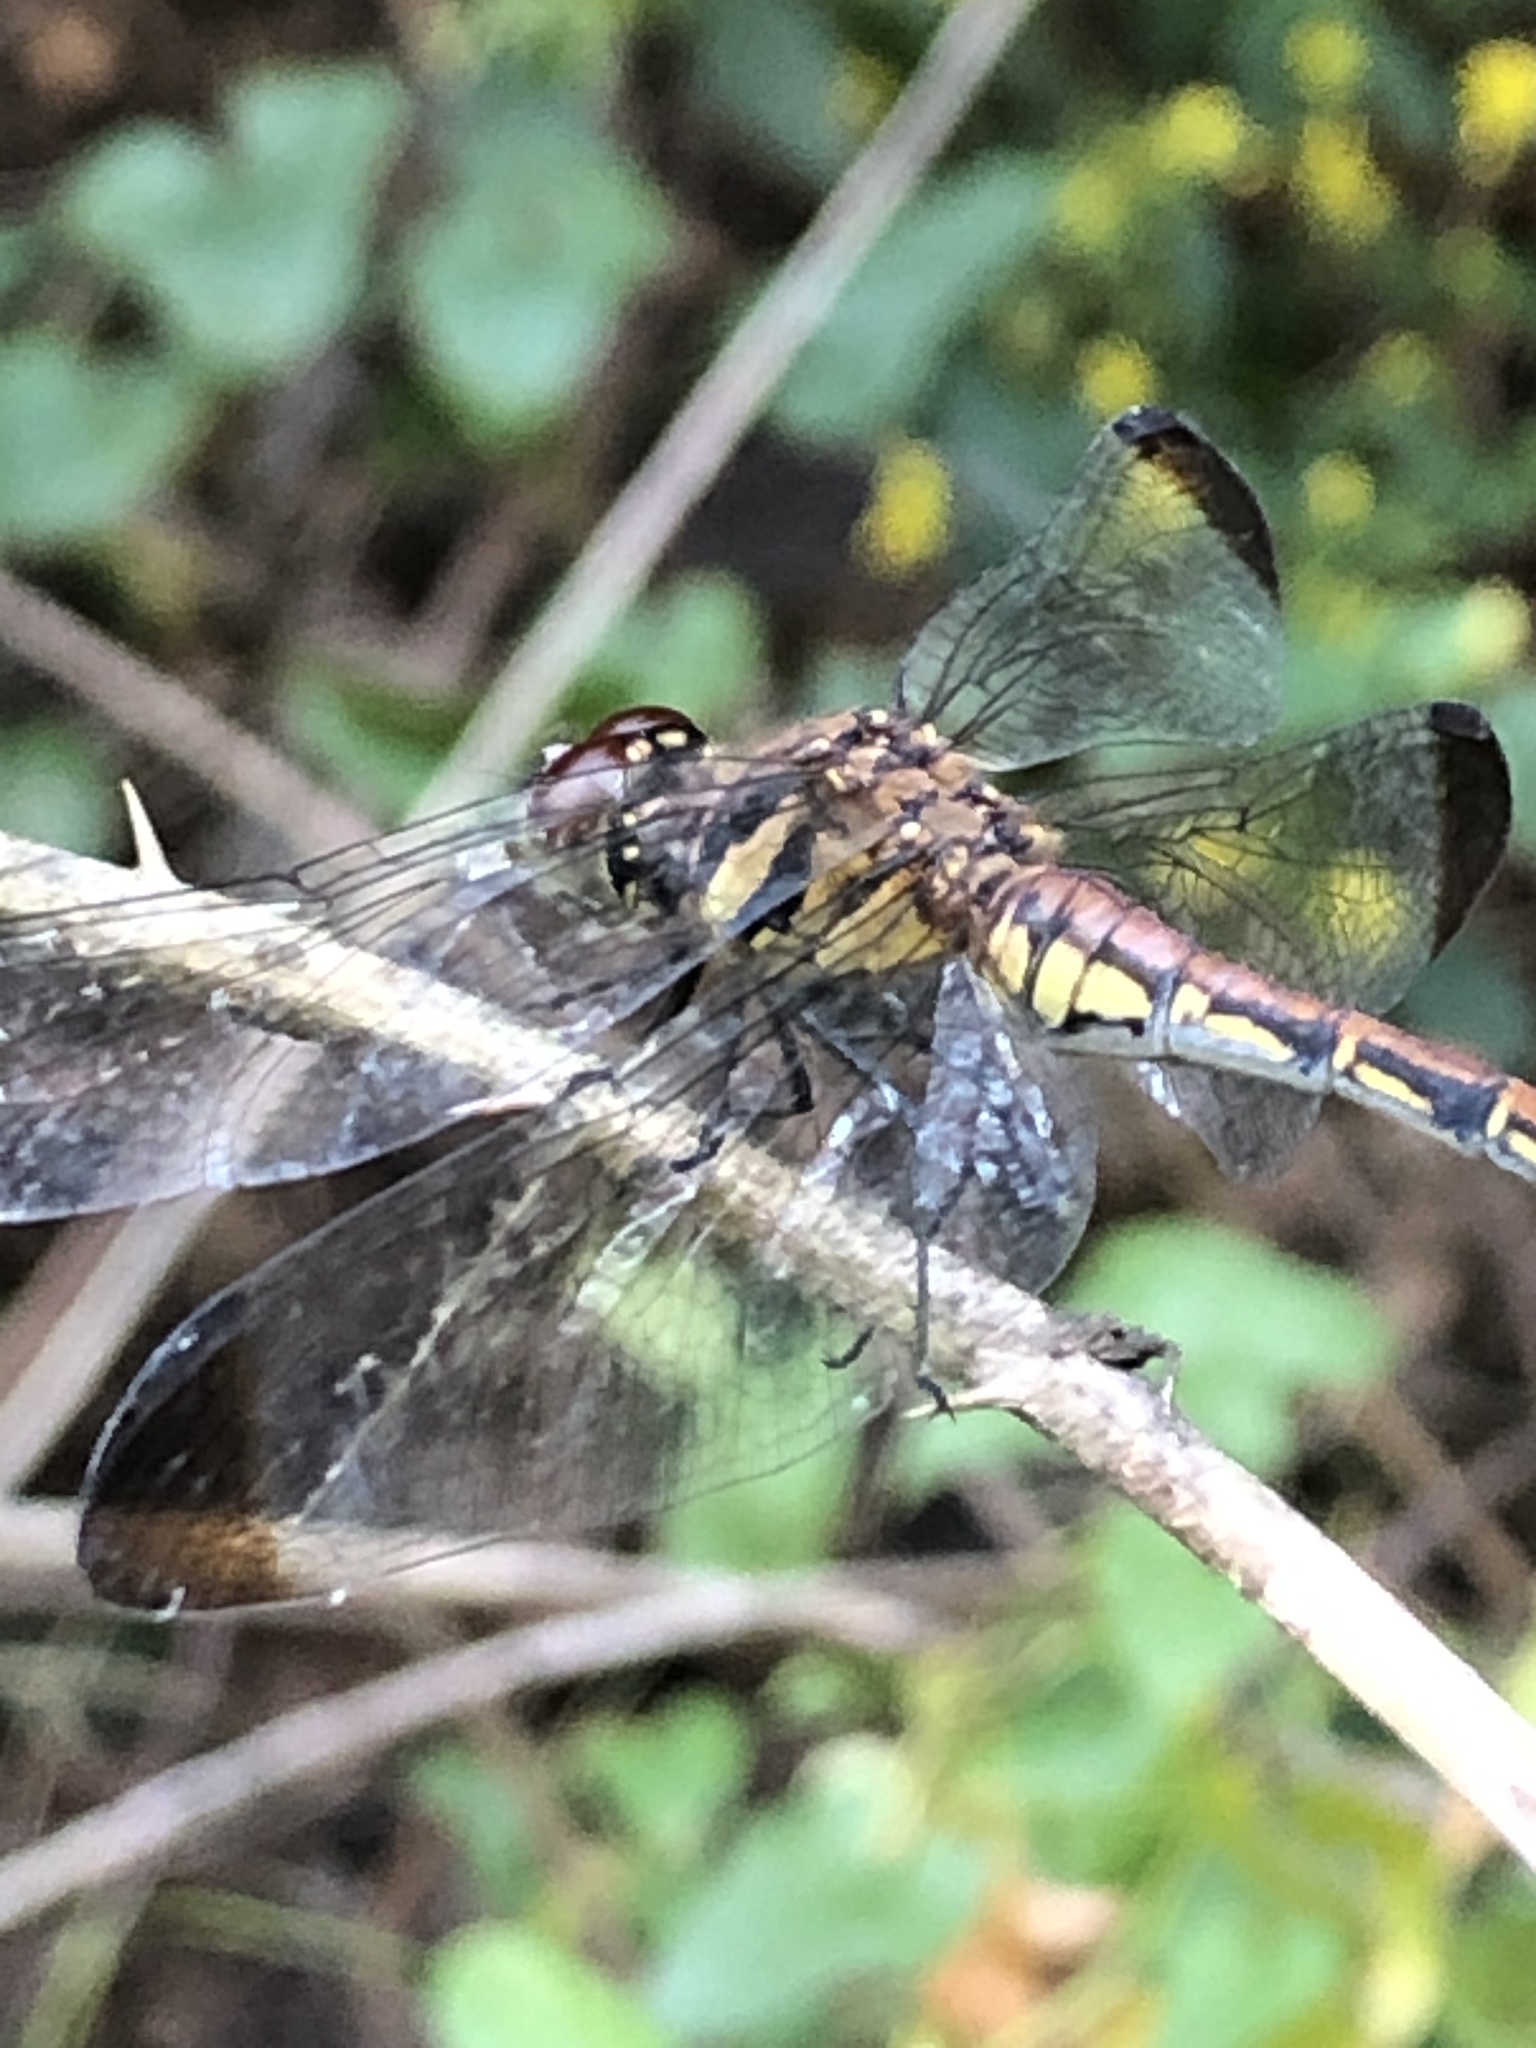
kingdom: Animalia
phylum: Arthropoda
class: Insecta
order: Odonata
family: Libellulidae
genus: Sympetrum
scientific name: Sympetrum infuscatum
